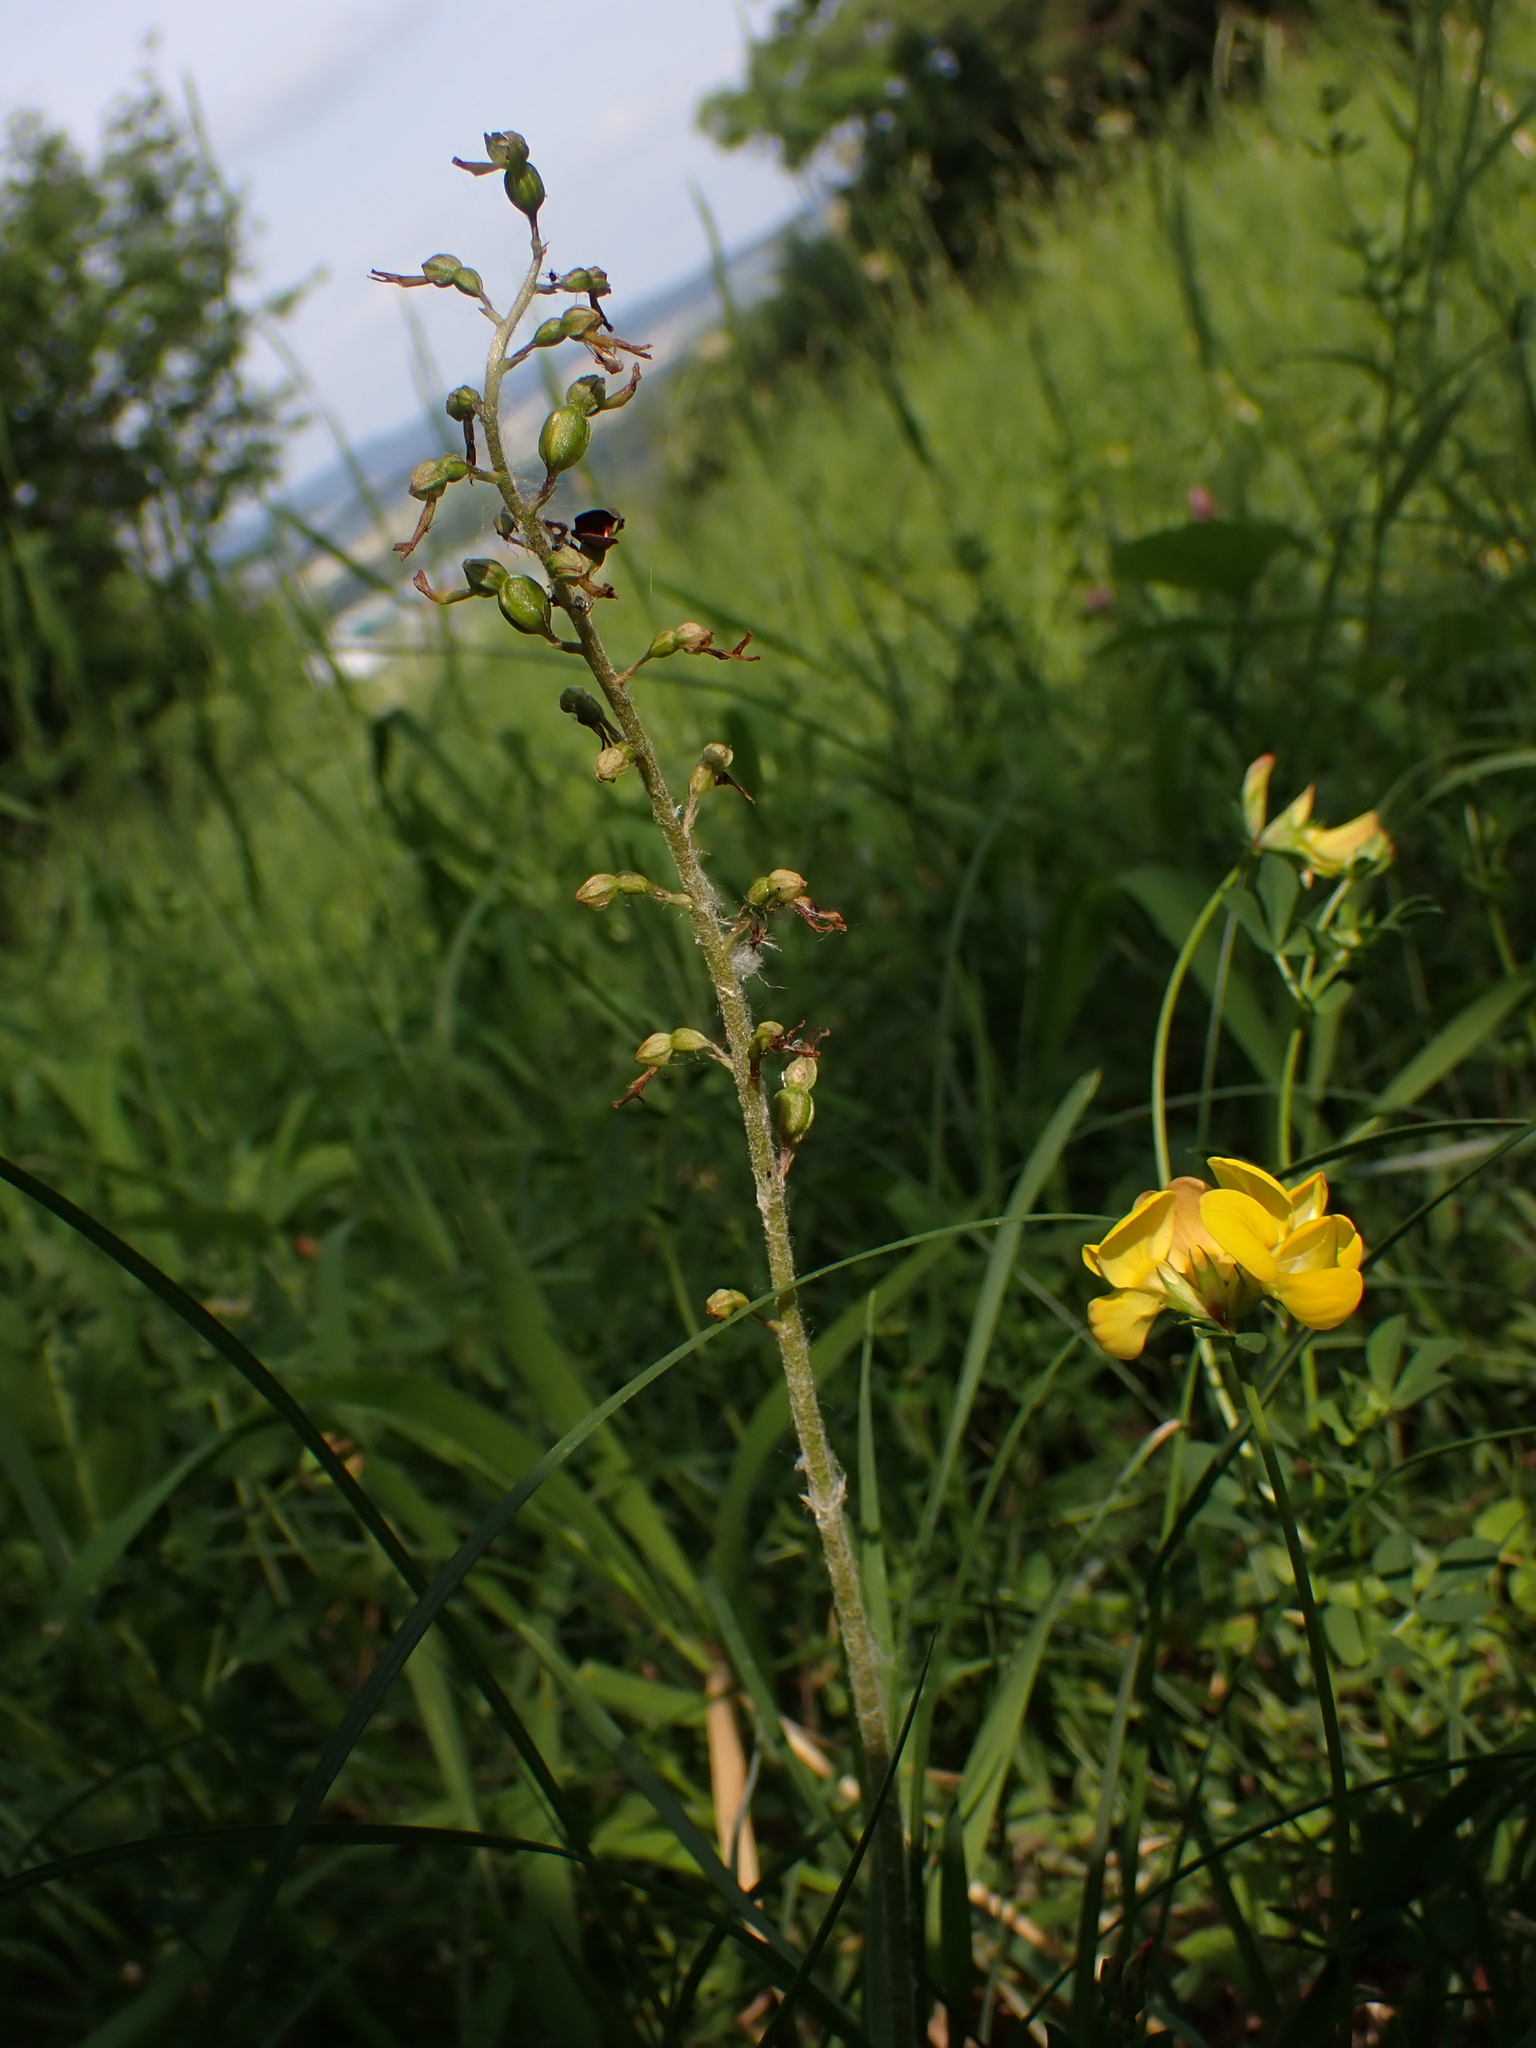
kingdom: Plantae
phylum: Tracheophyta
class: Liliopsida
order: Asparagales
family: Orchidaceae
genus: Neottia
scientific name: Neottia ovata
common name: Common twayblade
